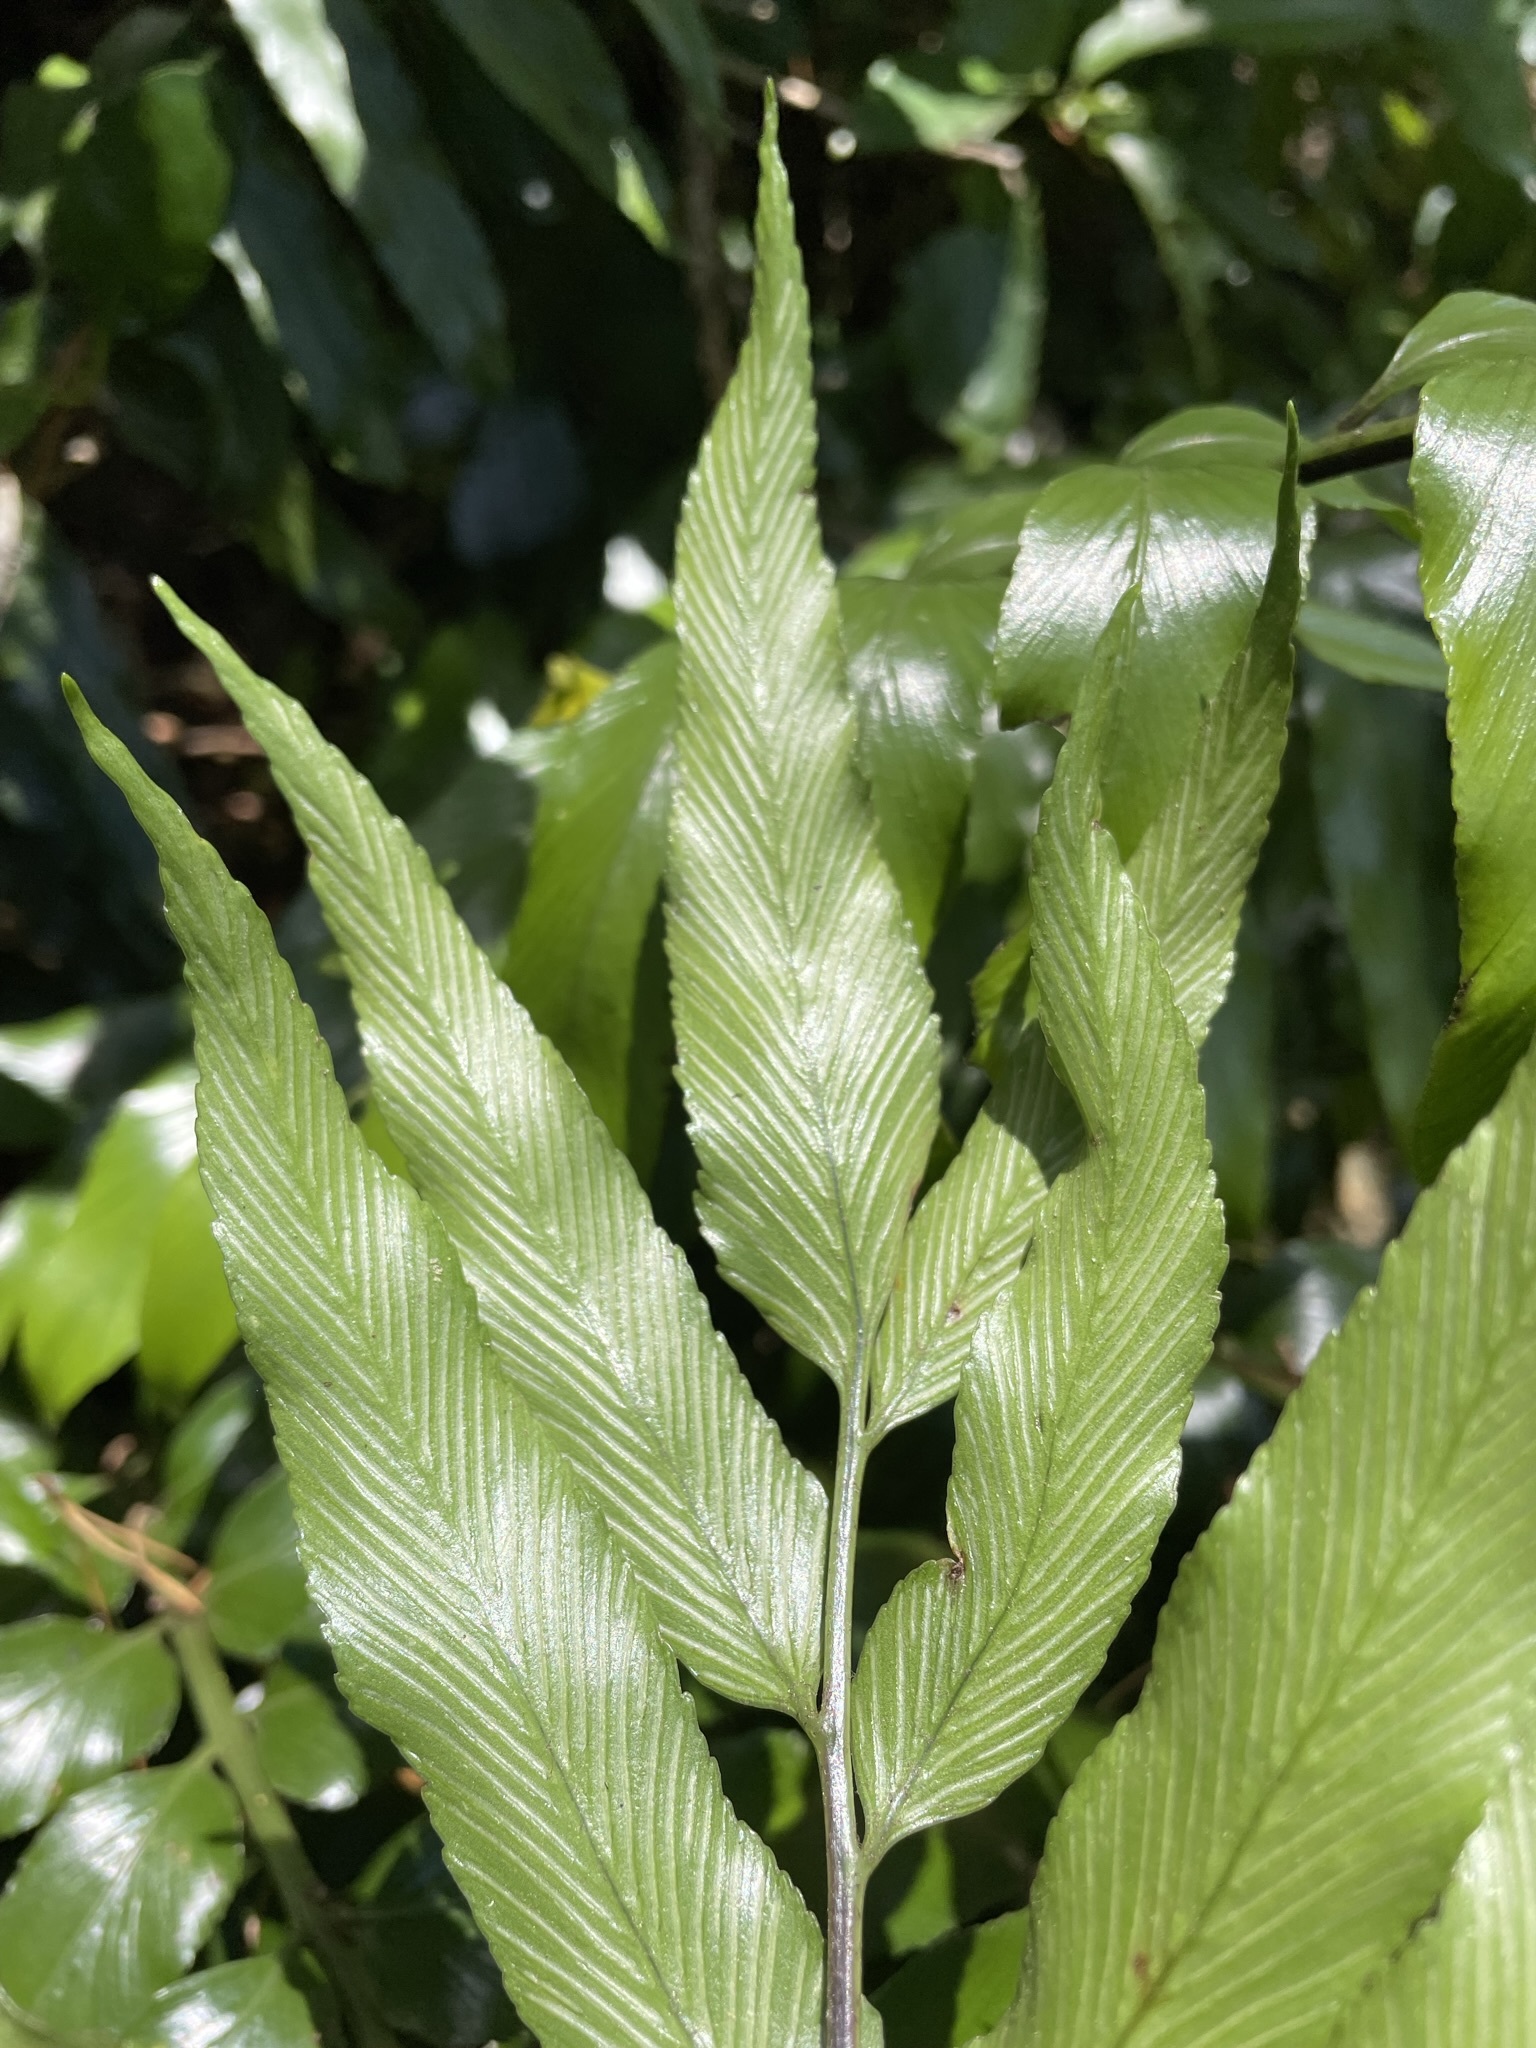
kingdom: Plantae
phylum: Tracheophyta
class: Polypodiopsida
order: Polypodiales
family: Aspleniaceae
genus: Asplenium
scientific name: Asplenium oblongifolium
